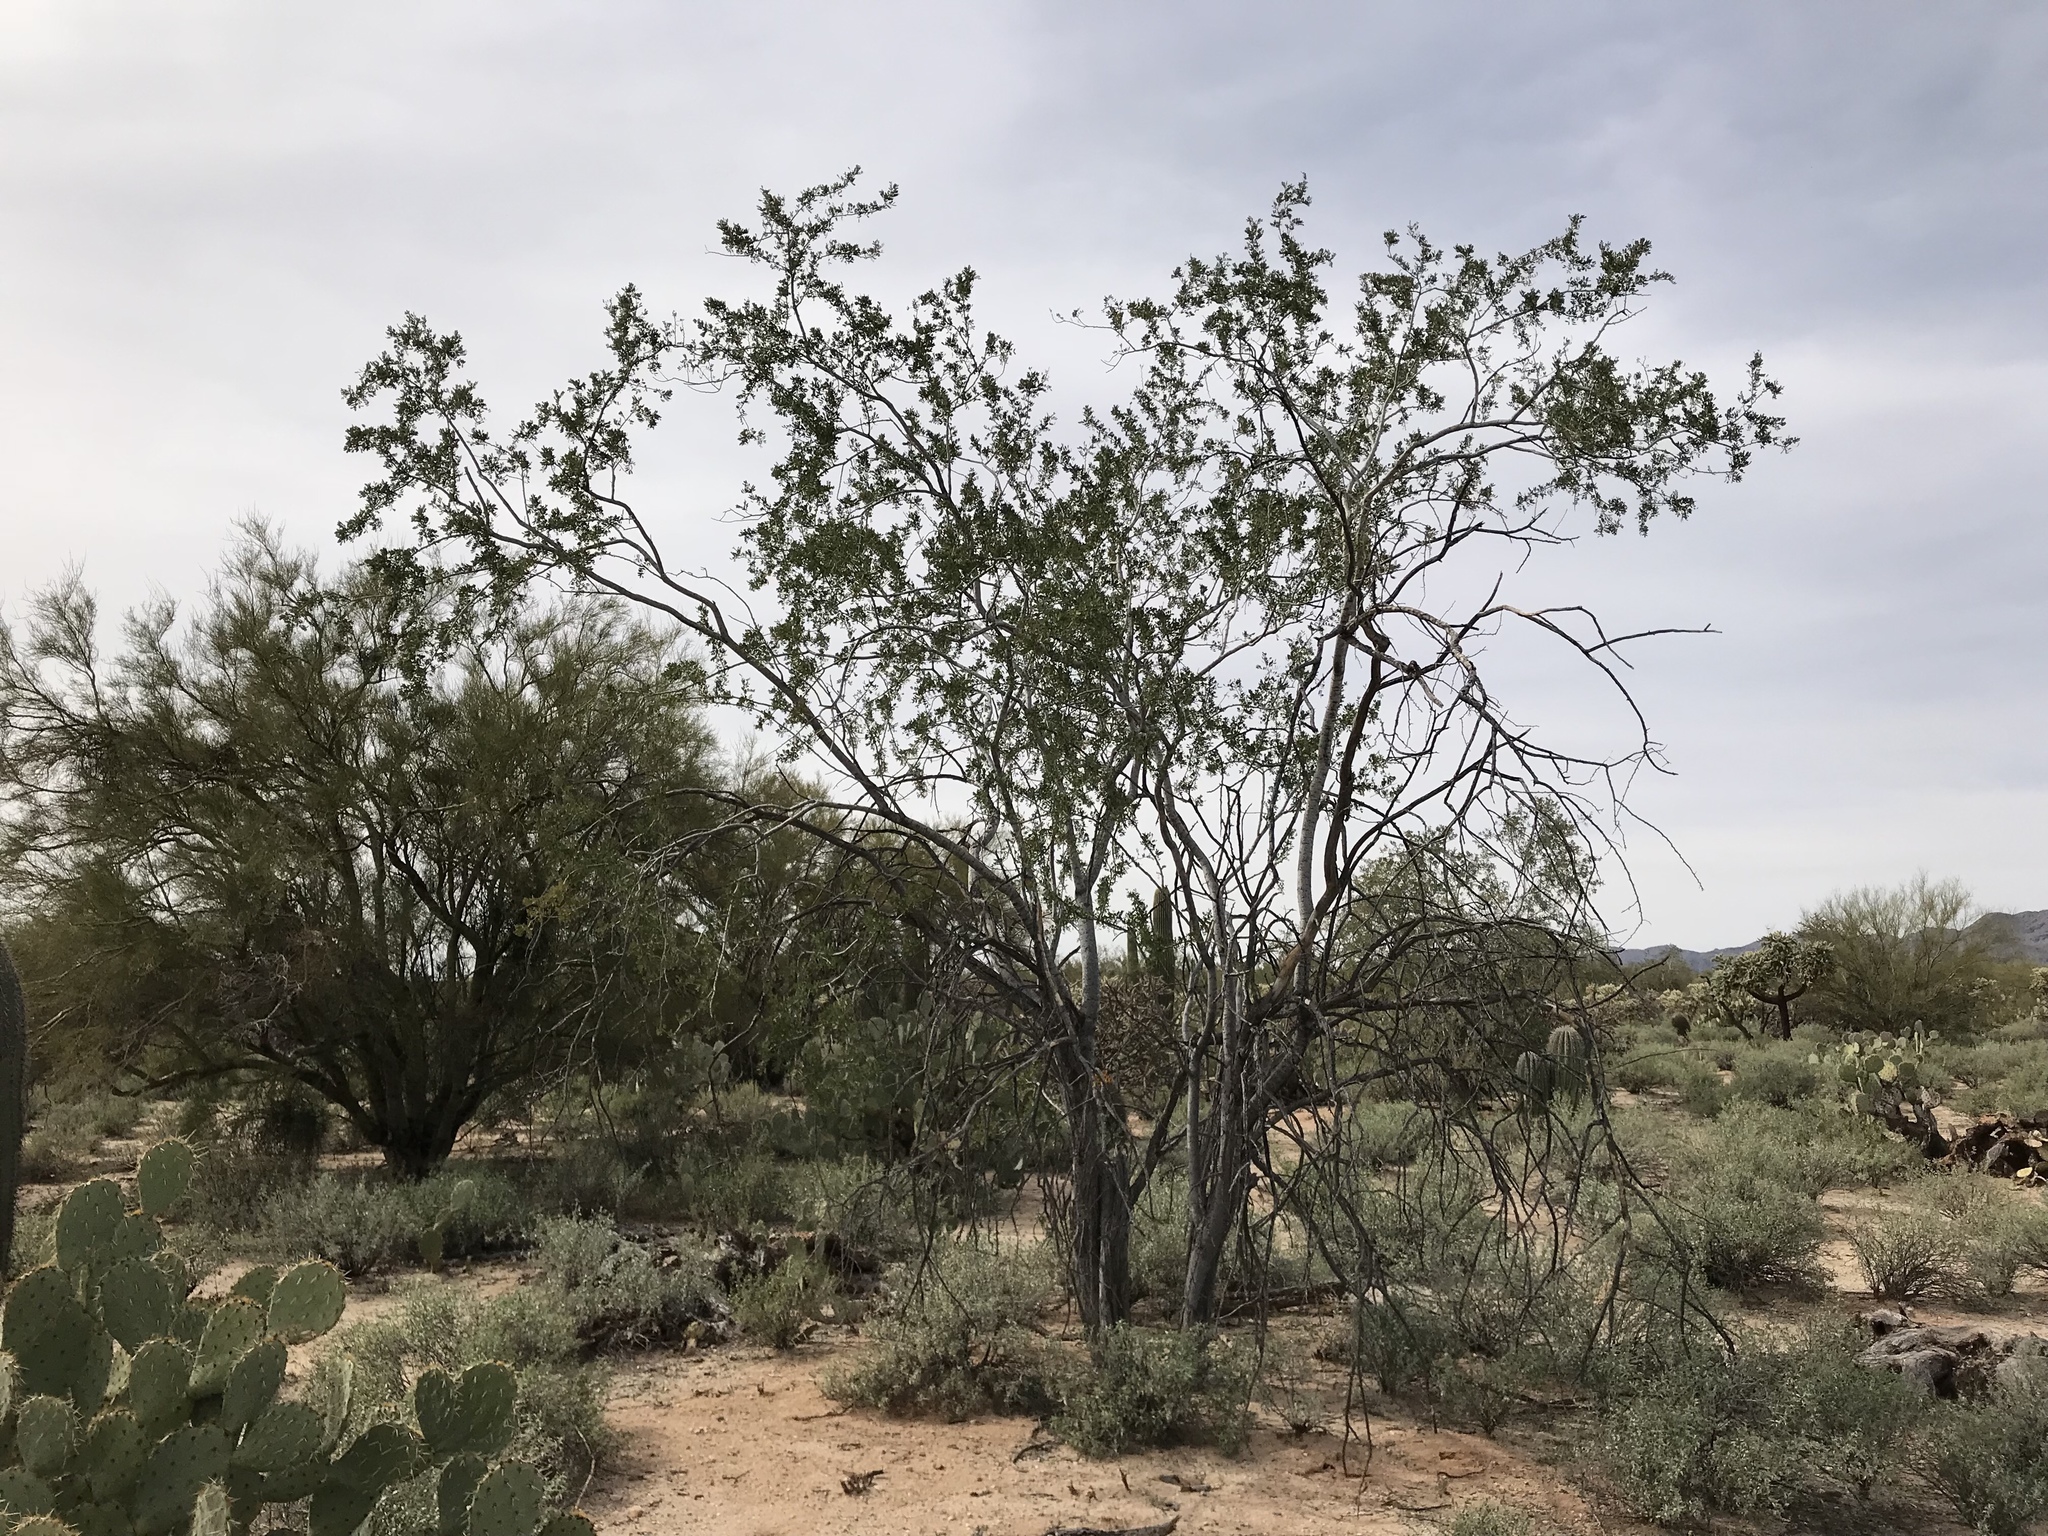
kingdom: Plantae
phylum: Tracheophyta
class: Magnoliopsida
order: Fabales
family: Fabaceae
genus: Olneya
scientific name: Olneya tesota
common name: Desert ironwood
